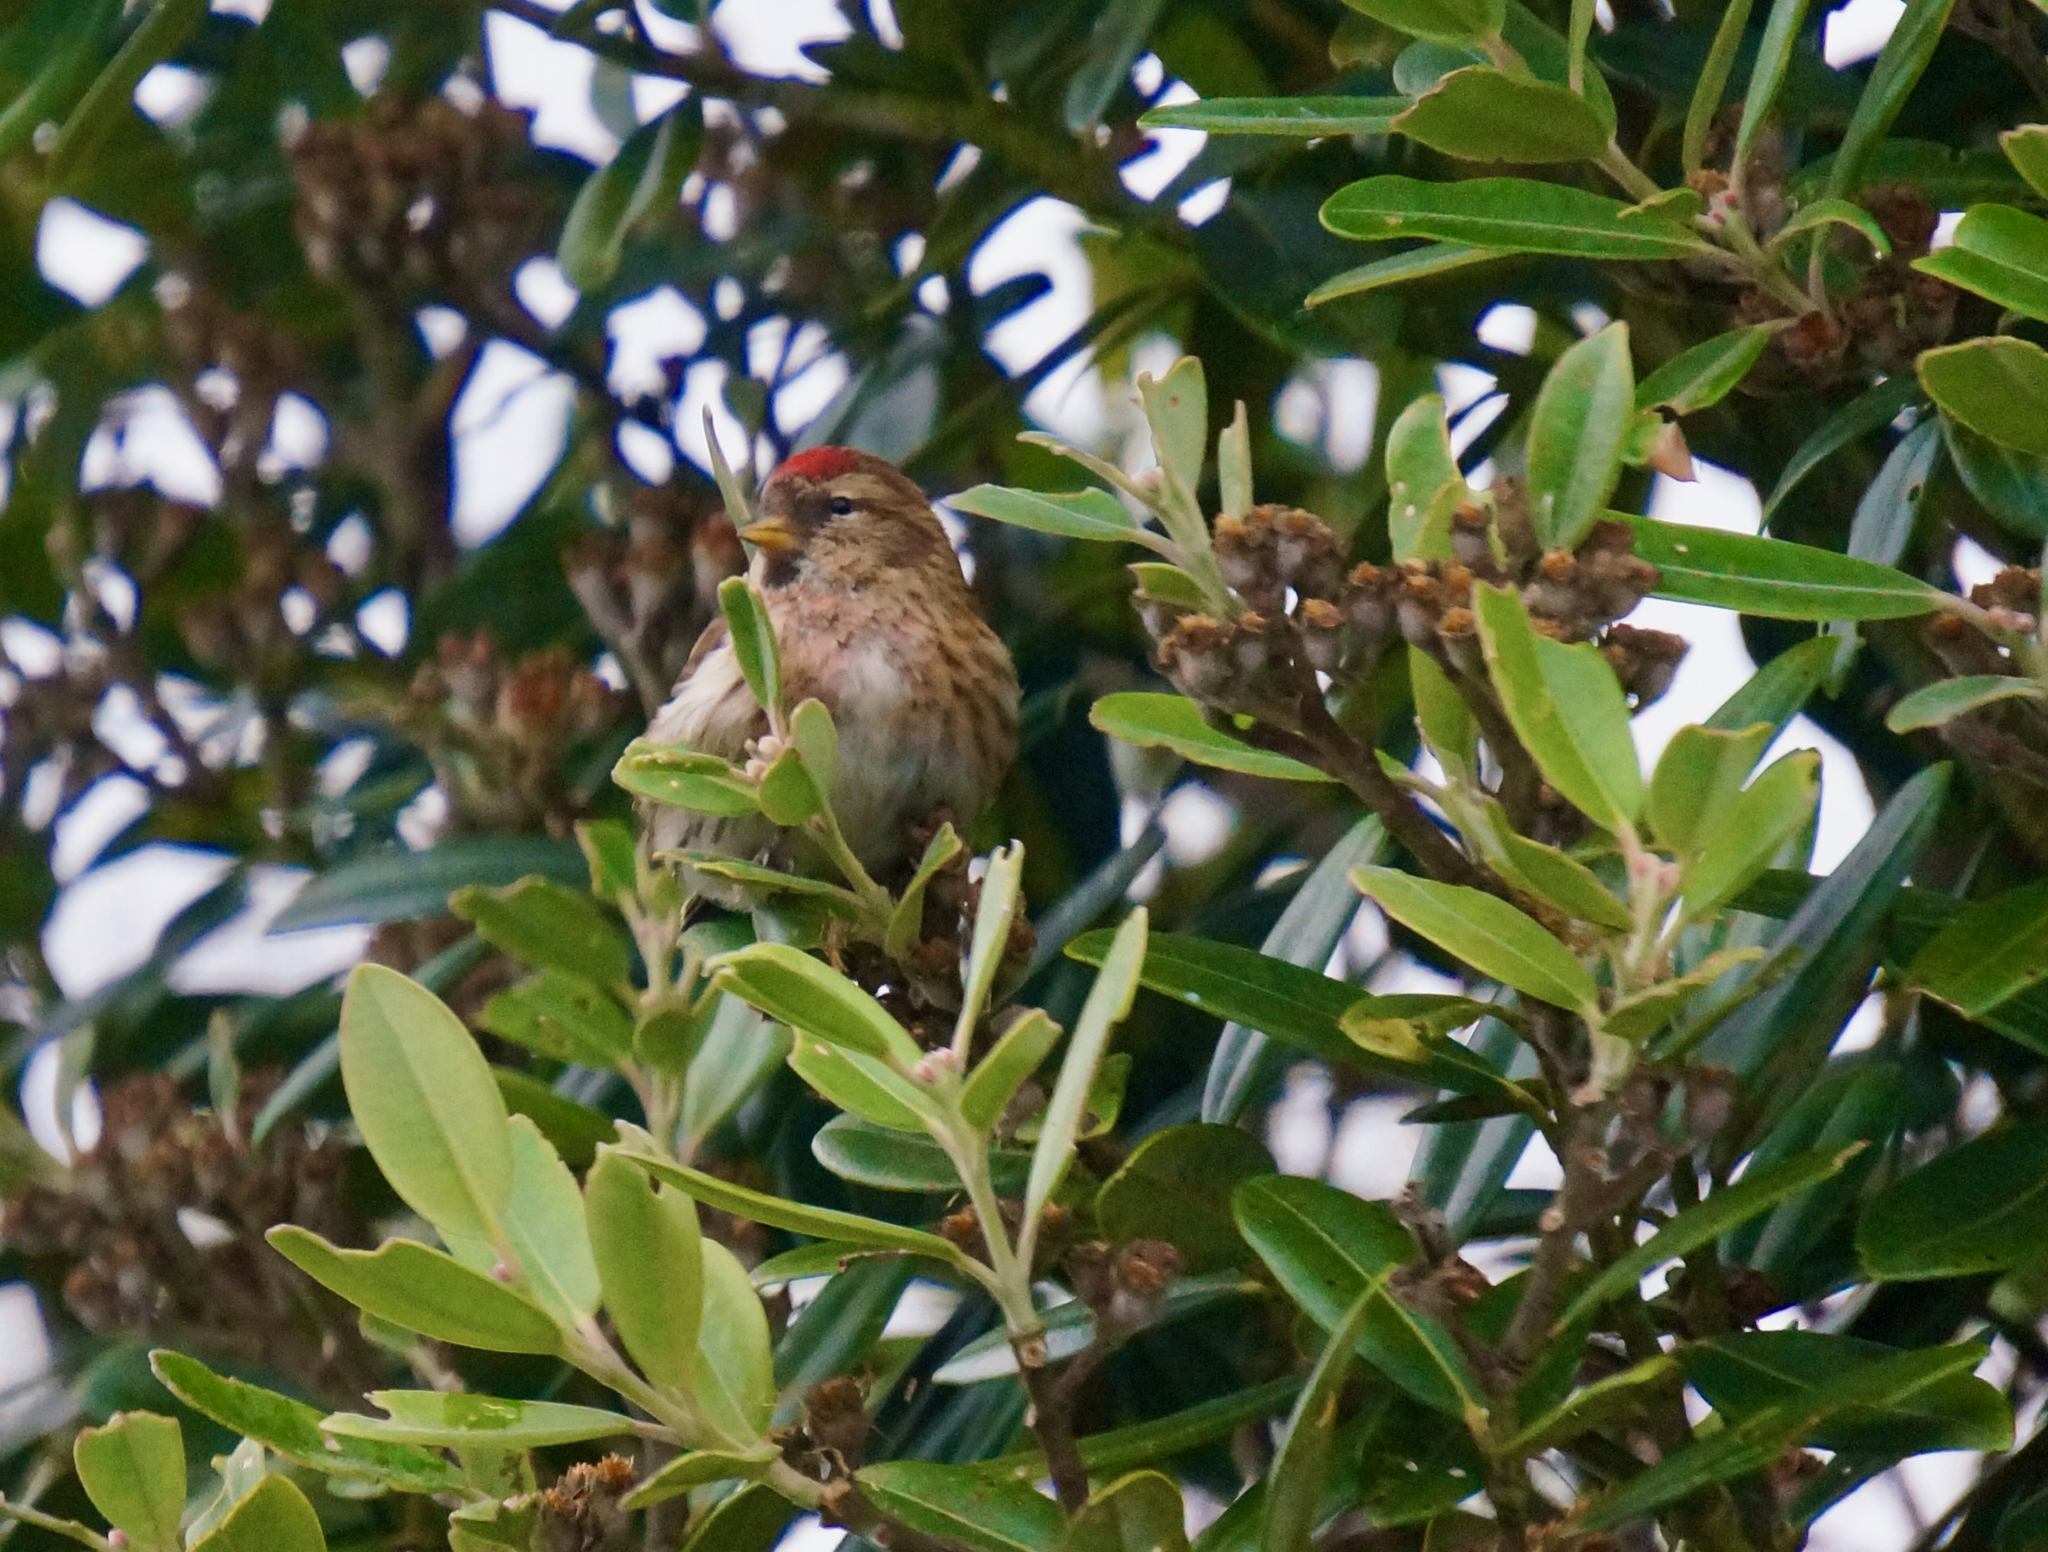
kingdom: Animalia
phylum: Chordata
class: Aves
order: Passeriformes
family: Fringillidae
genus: Acanthis
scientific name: Acanthis flammea
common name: Common redpoll
